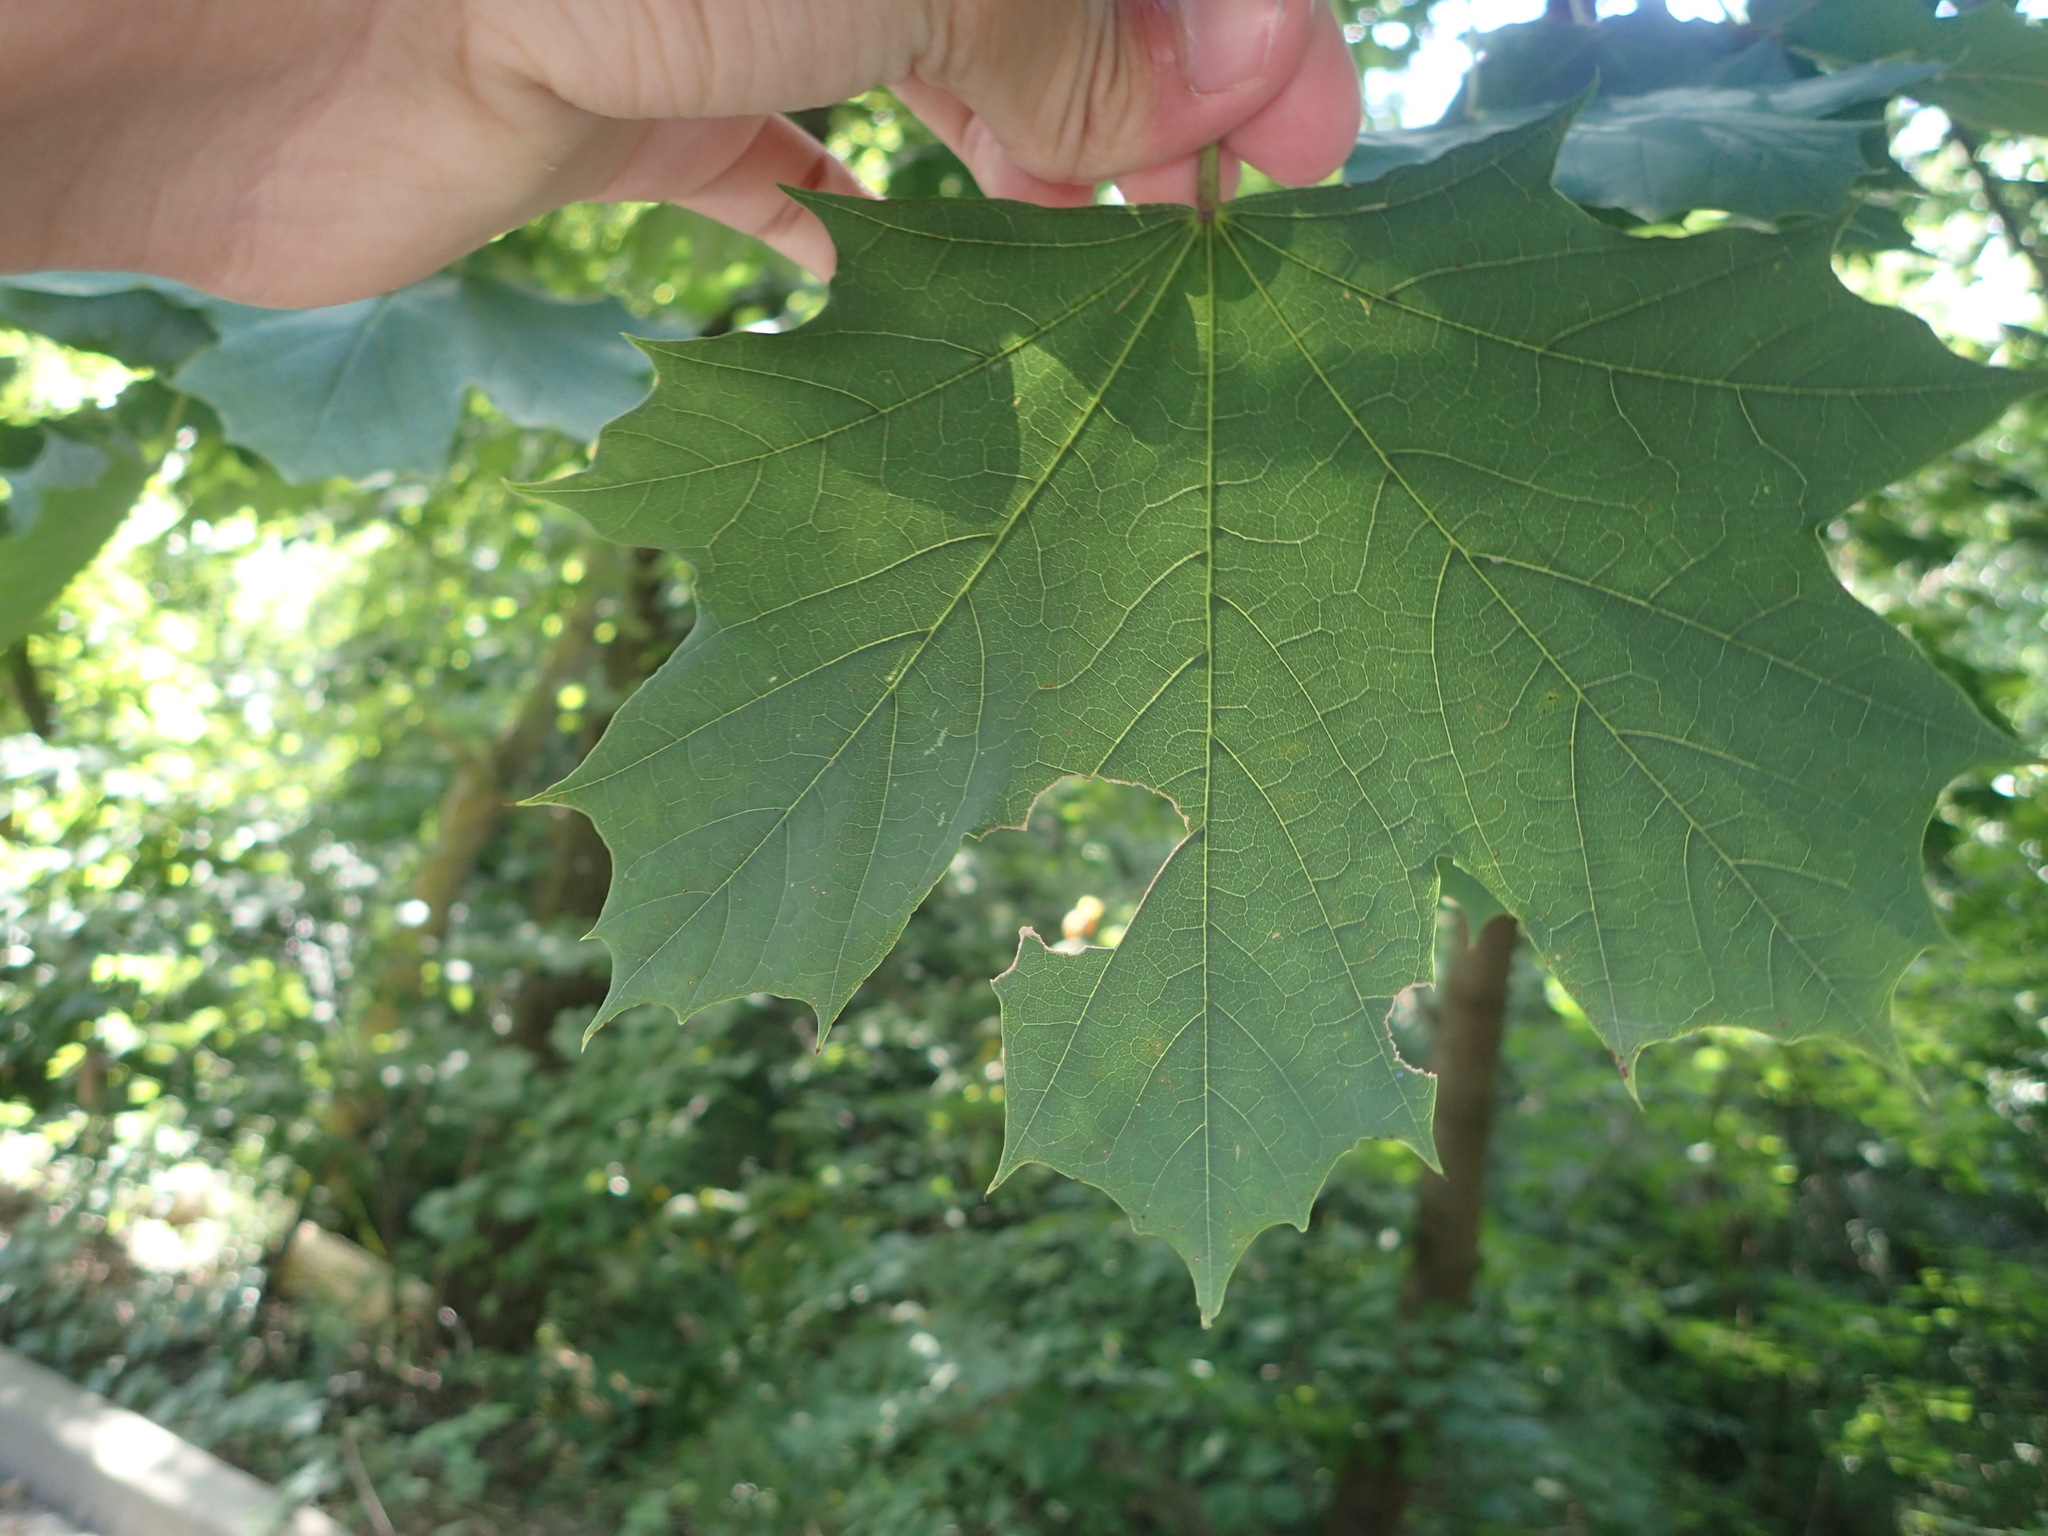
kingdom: Plantae
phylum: Tracheophyta
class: Magnoliopsida
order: Sapindales
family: Sapindaceae
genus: Acer
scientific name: Acer platanoides
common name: Norway maple
